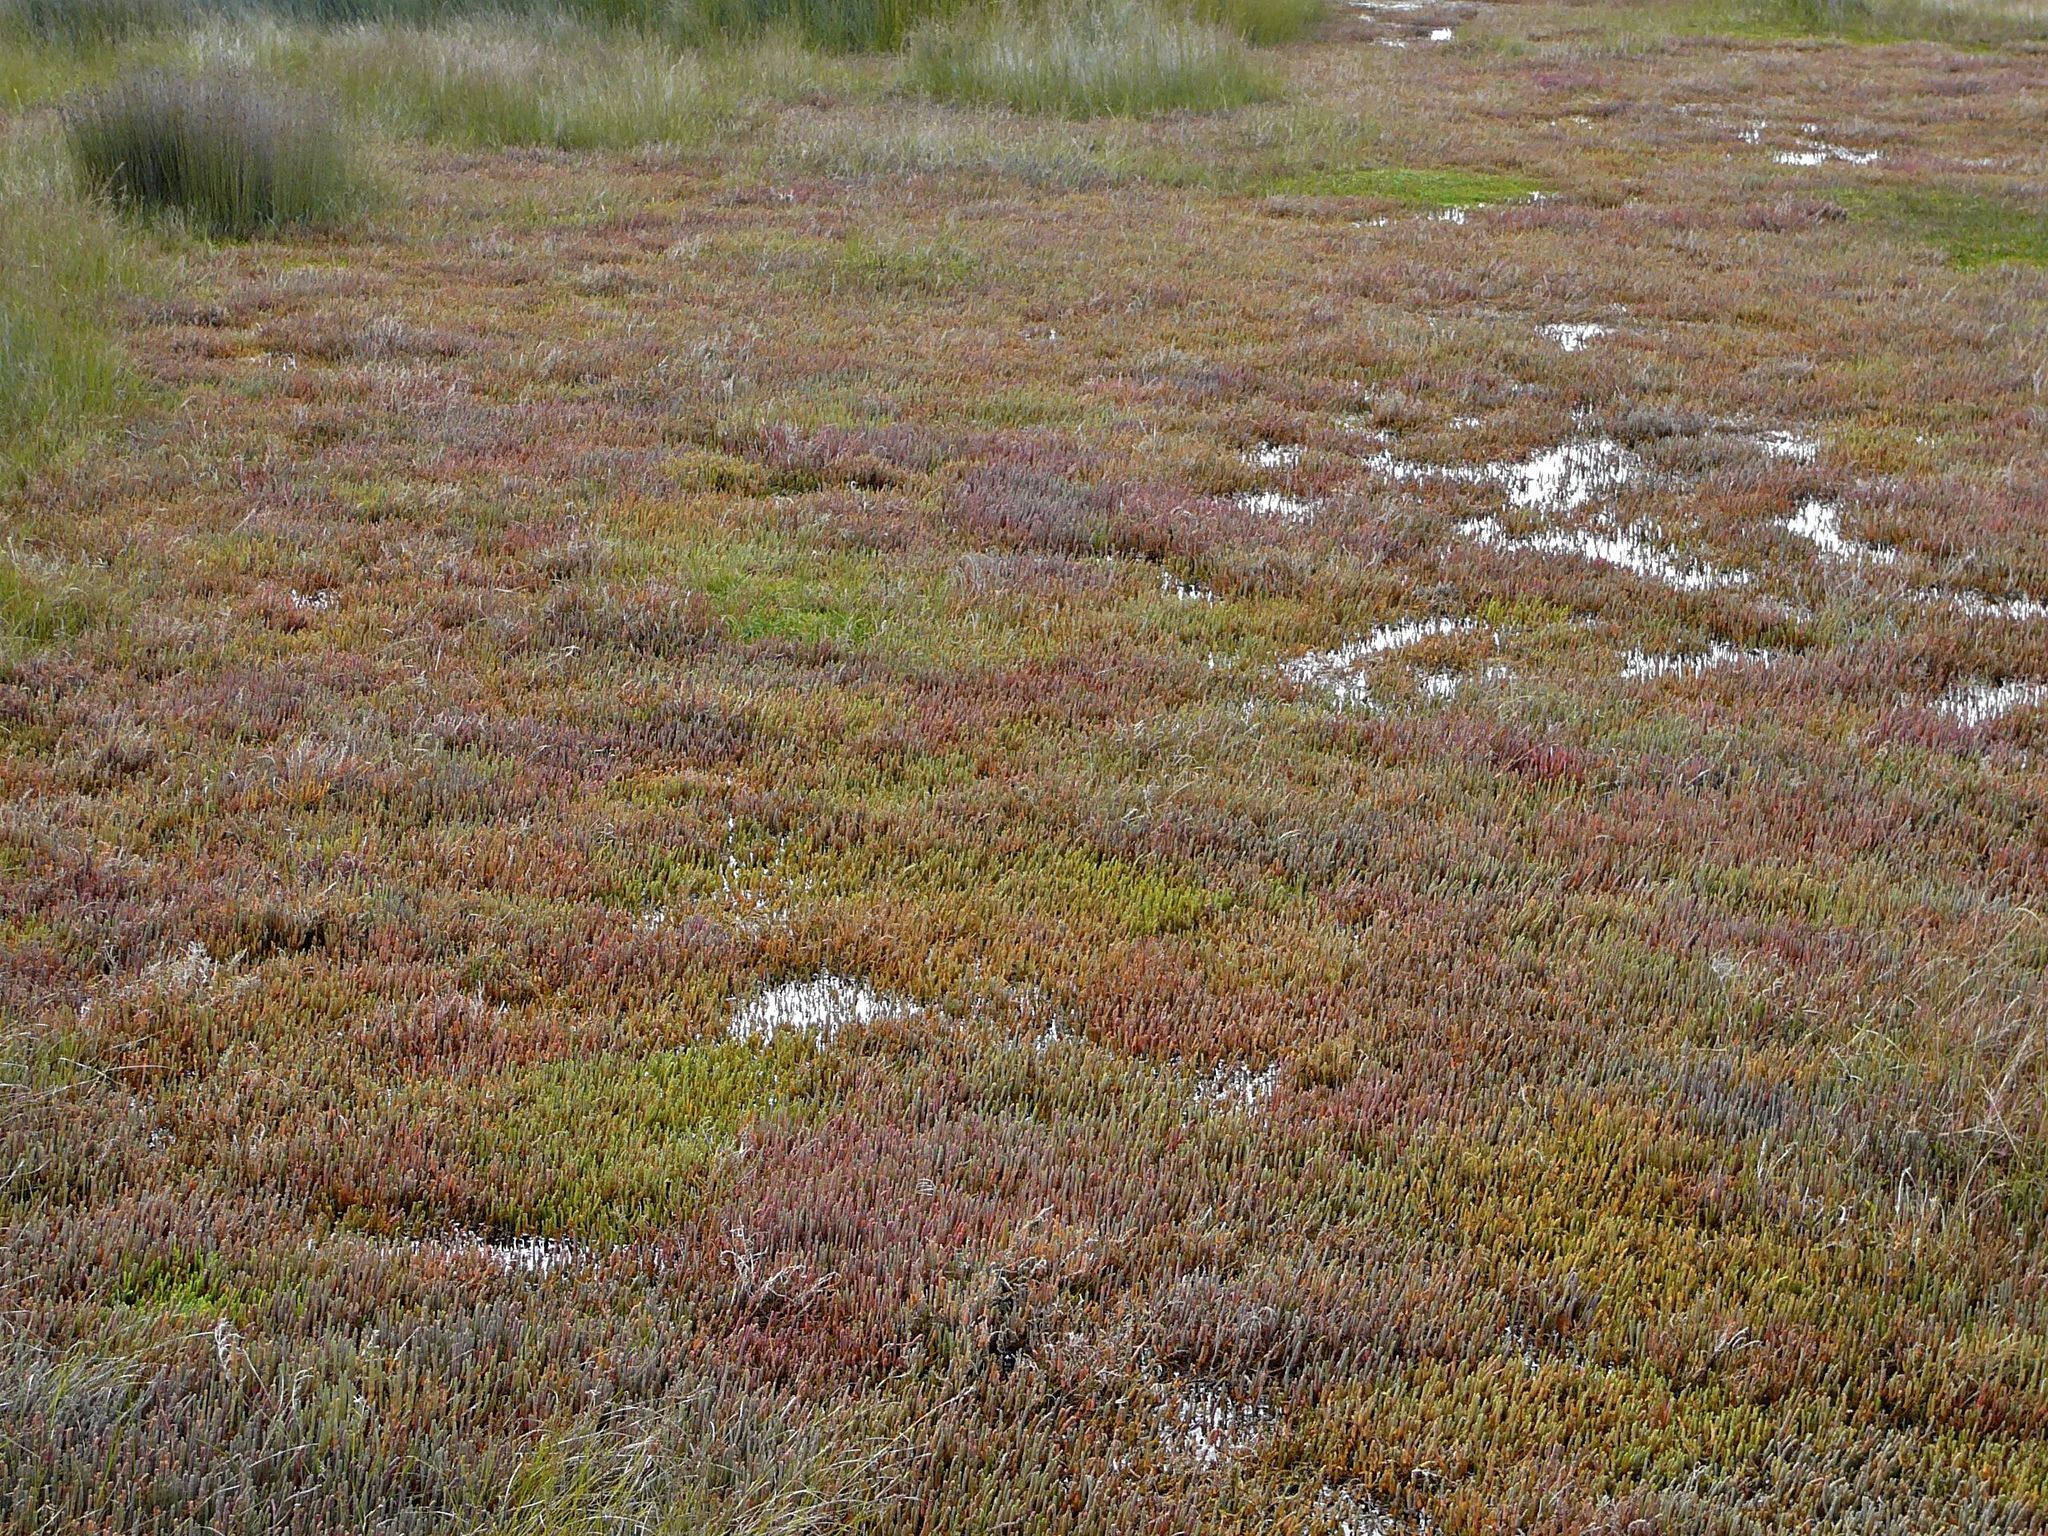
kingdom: Plantae
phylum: Tracheophyta
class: Magnoliopsida
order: Caryophyllales
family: Amaranthaceae
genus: Salicornia
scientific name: Salicornia quinqueflora
